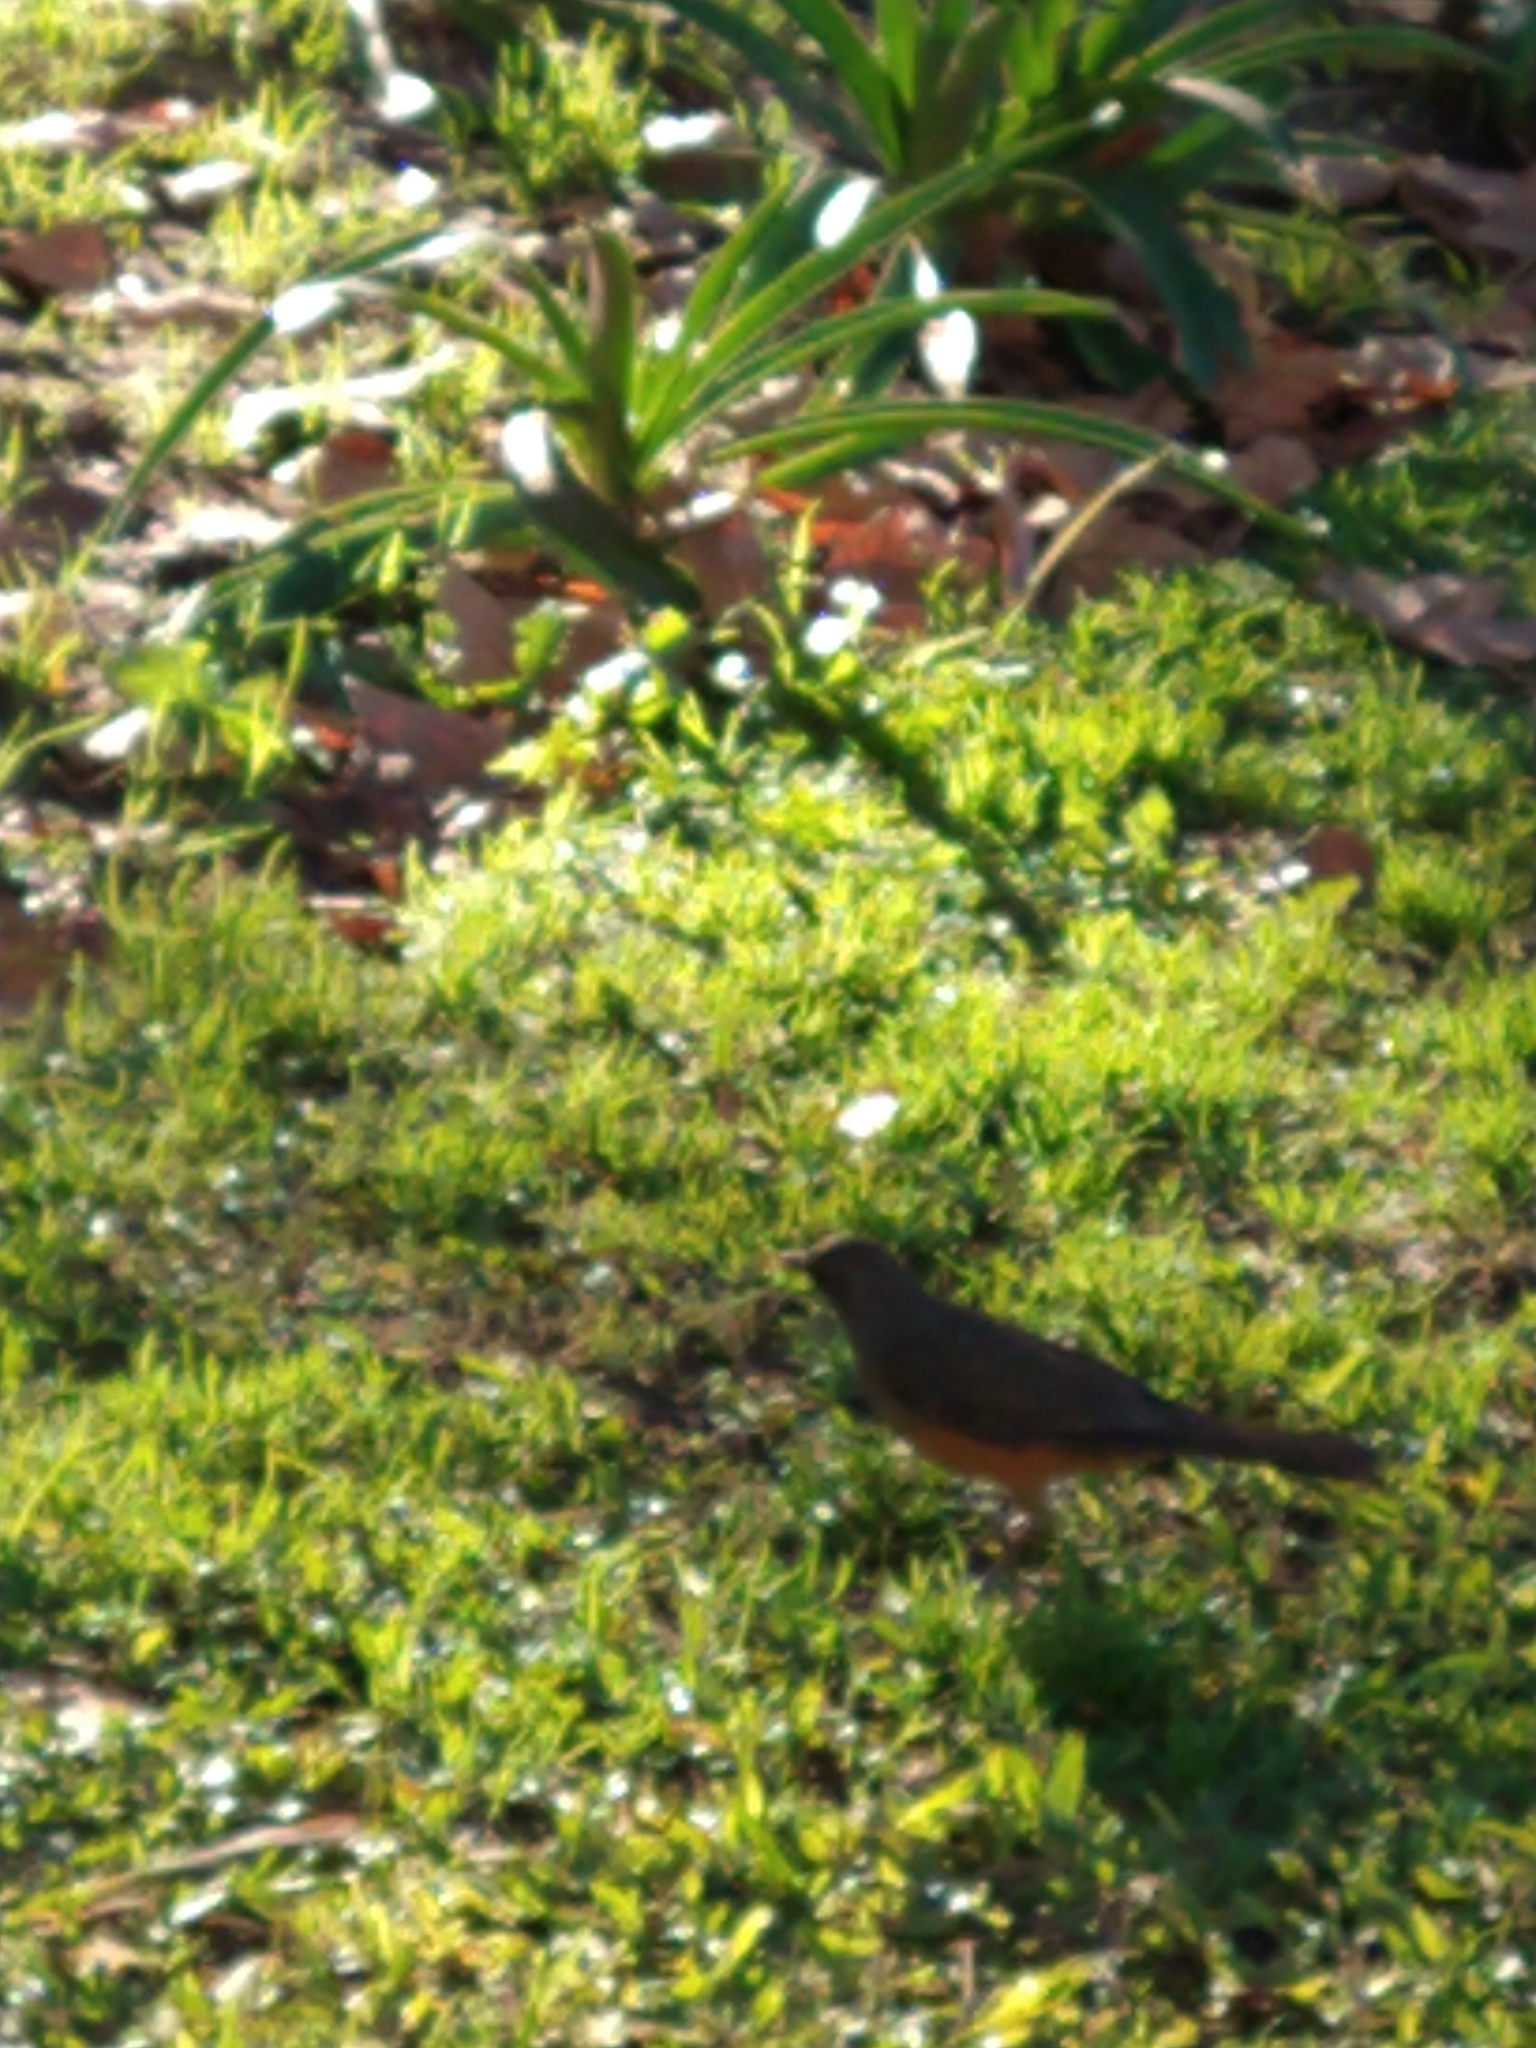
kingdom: Animalia
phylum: Chordata
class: Aves
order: Passeriformes
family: Turdidae
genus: Turdus
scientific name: Turdus rufiventris
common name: Rufous-bellied thrush
